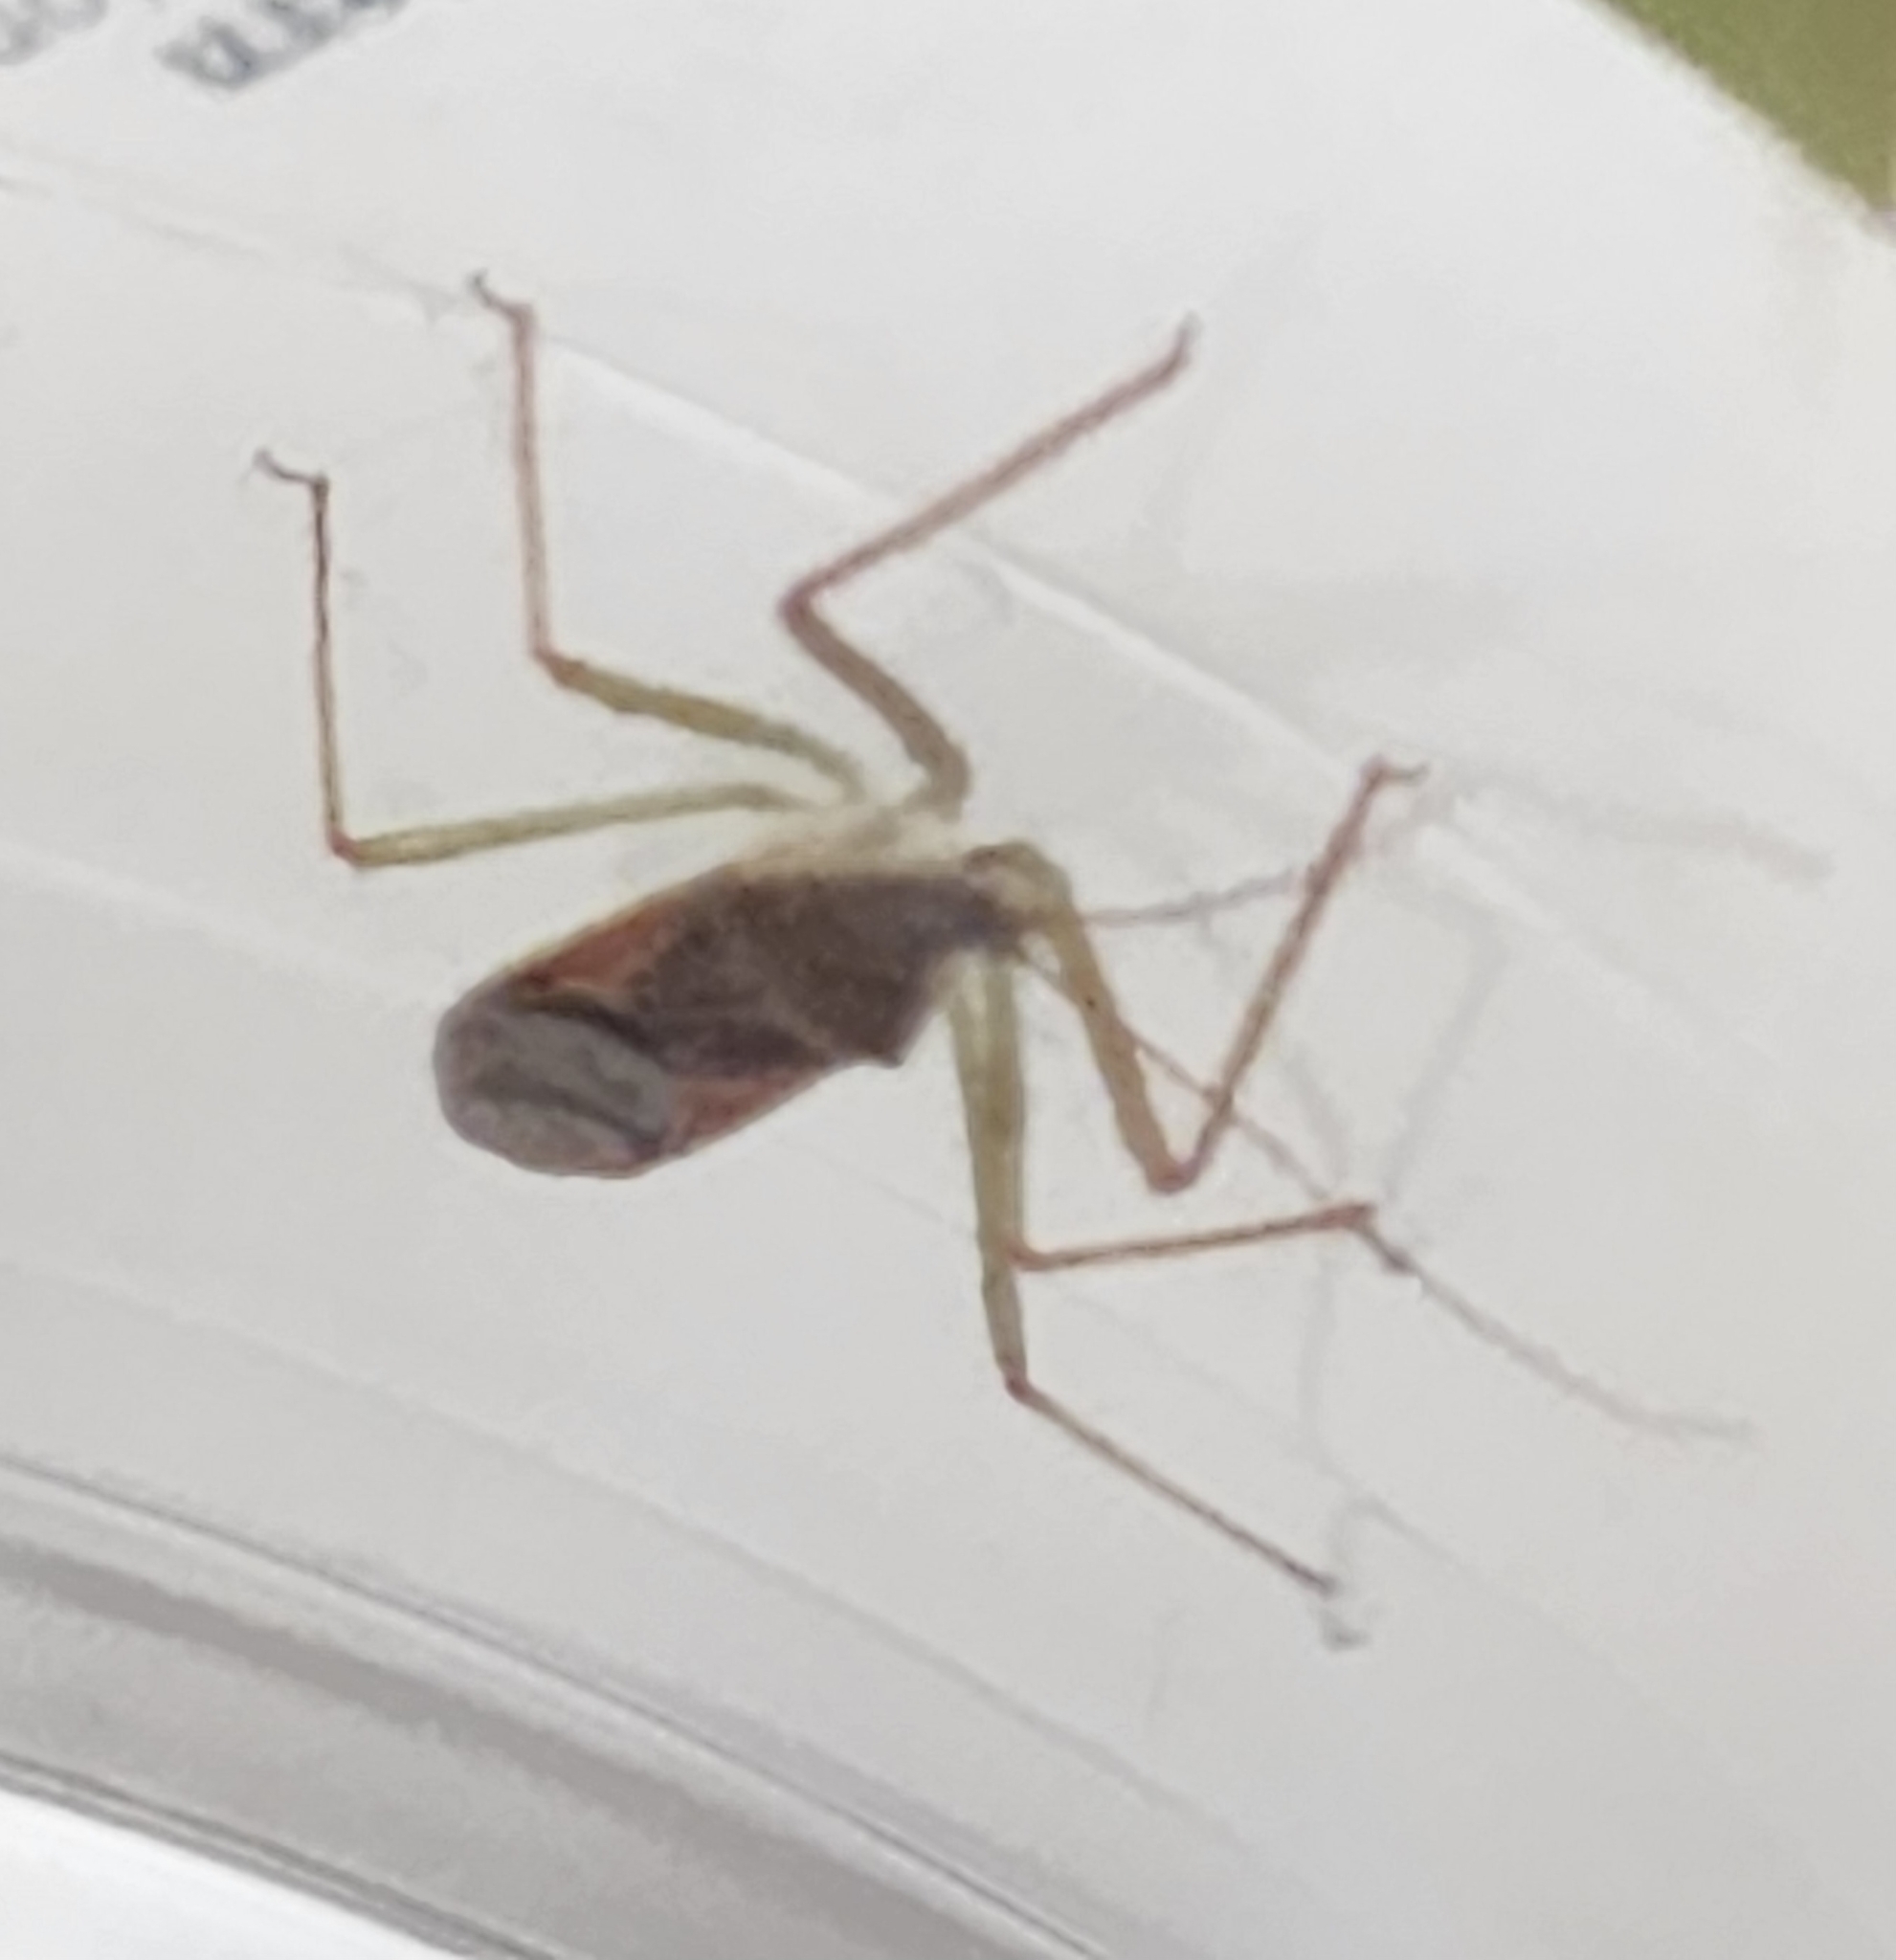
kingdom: Animalia
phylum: Arthropoda
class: Insecta
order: Hemiptera
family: Reduviidae
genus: Zelus
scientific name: Zelus renardii
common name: Assassin bug
